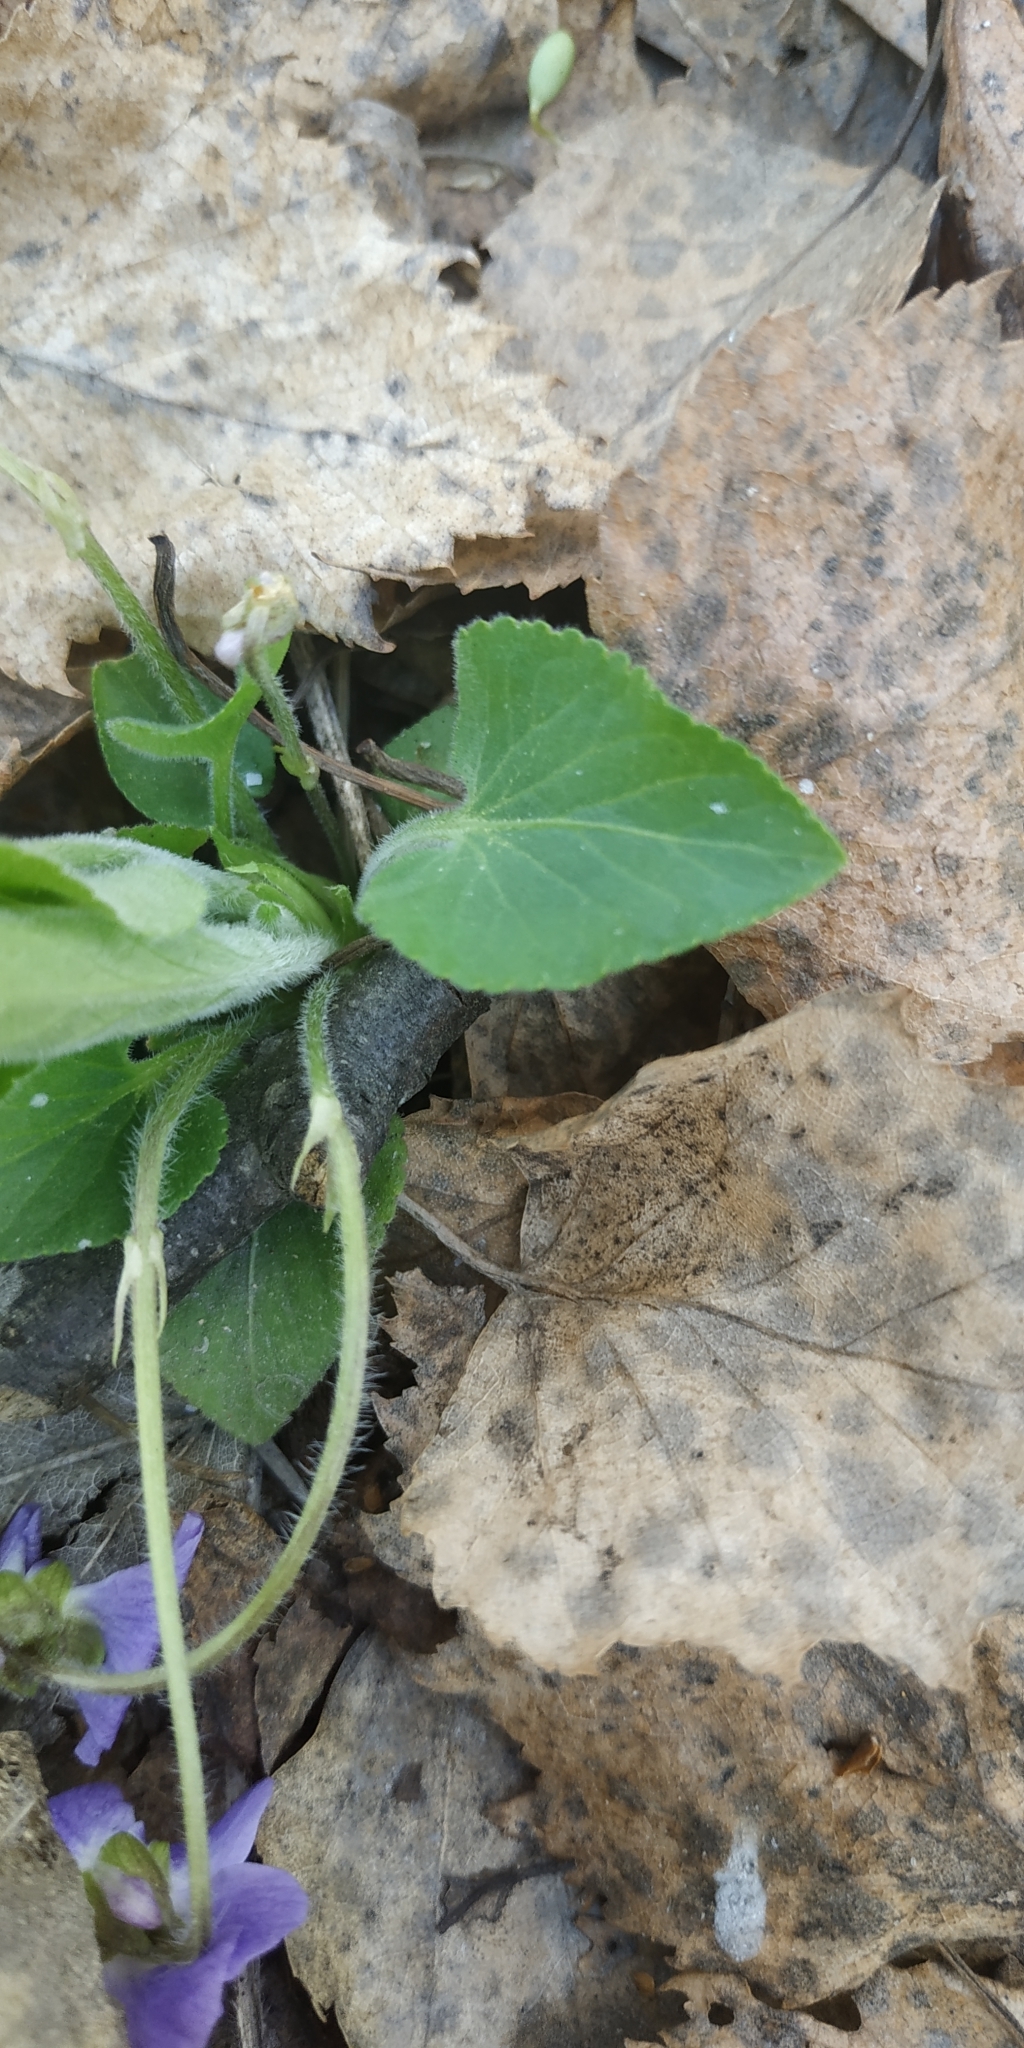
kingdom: Plantae
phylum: Tracheophyta
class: Magnoliopsida
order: Malpighiales
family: Violaceae
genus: Viola
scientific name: Viola hirta
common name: Hairy violet
